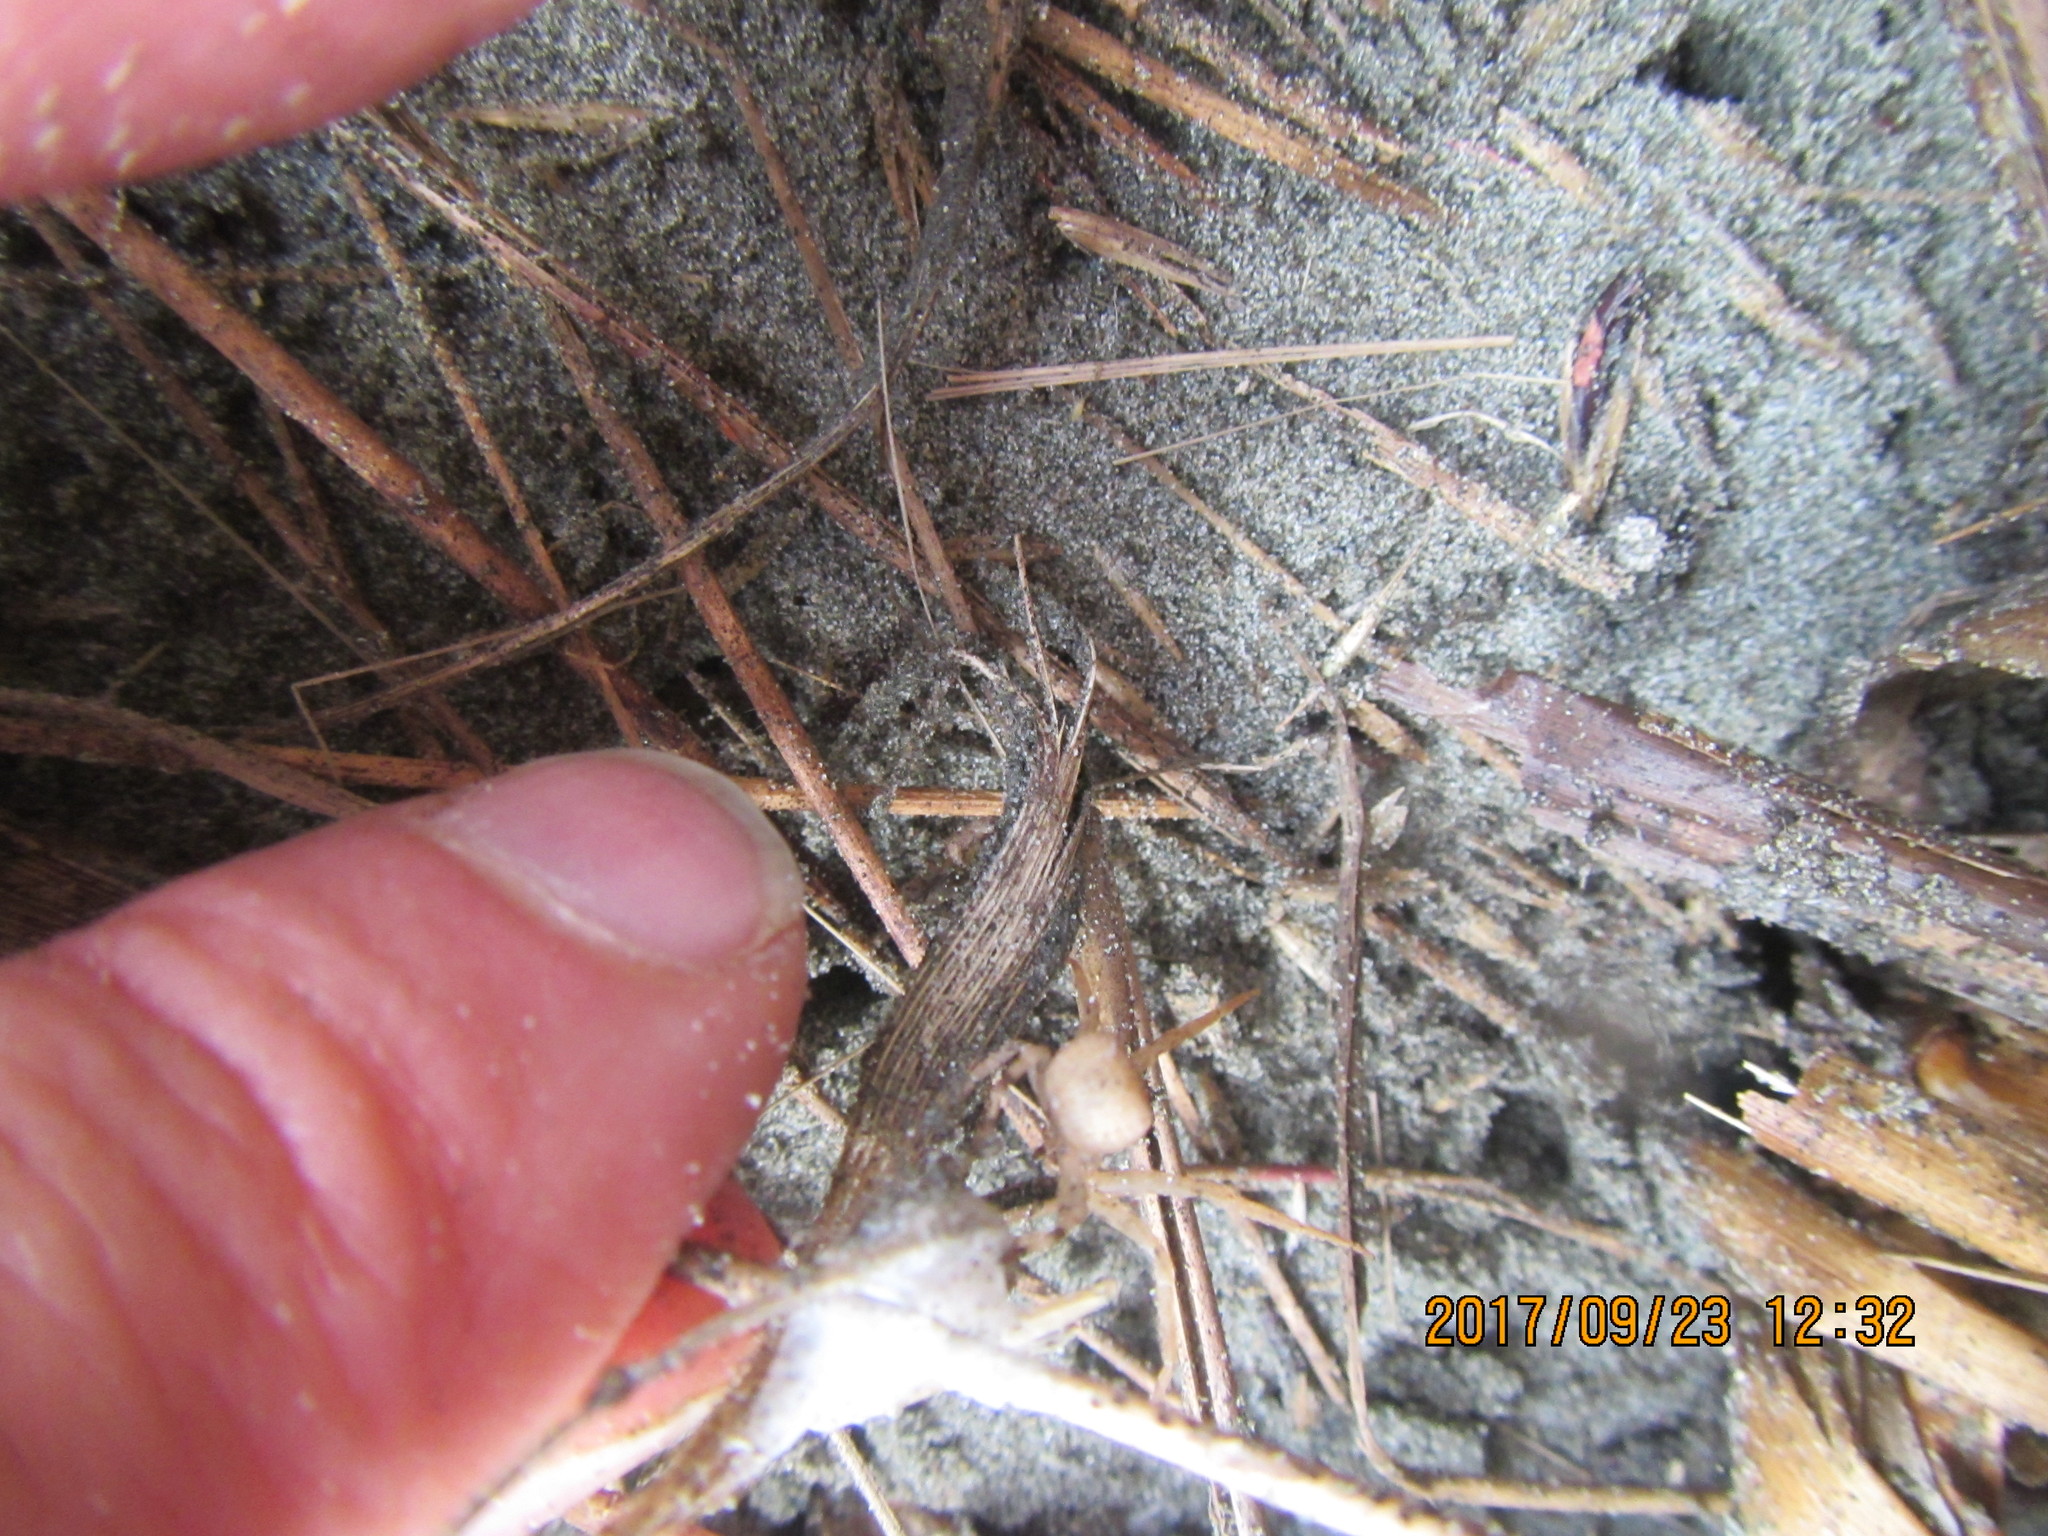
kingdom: Animalia
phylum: Arthropoda
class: Arachnida
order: Araneae
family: Thomisidae
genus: Sidymella
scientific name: Sidymella trapezia
